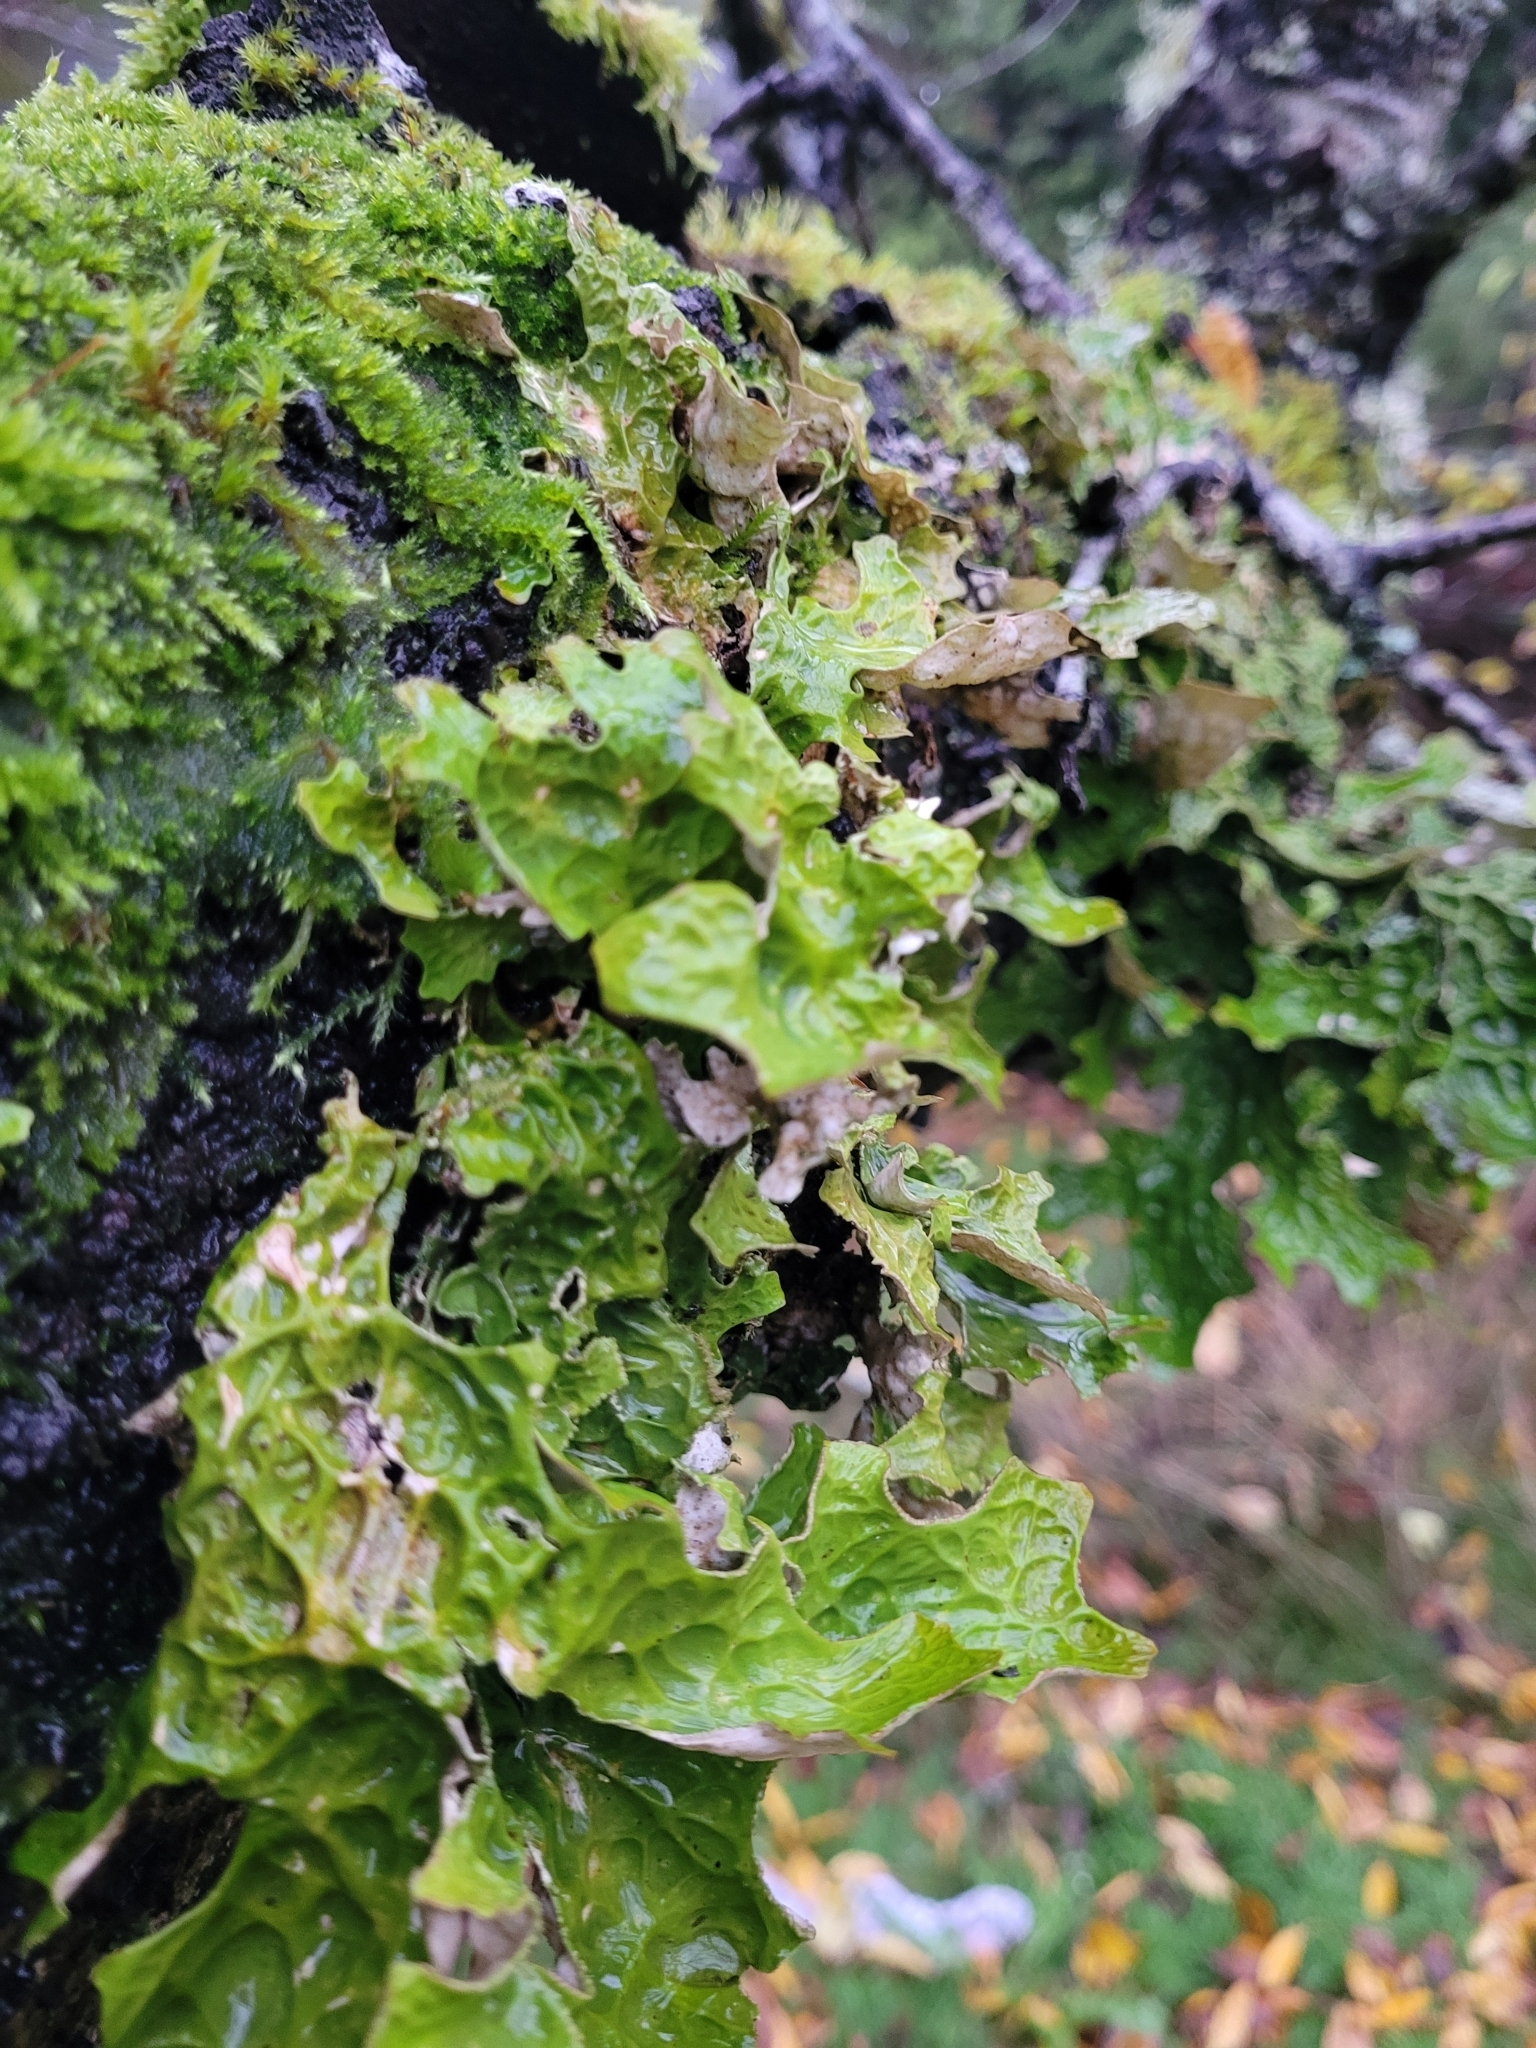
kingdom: Fungi
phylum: Ascomycota
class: Lecanoromycetes
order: Peltigerales
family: Lobariaceae
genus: Lobaria
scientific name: Lobaria pulmonaria
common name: Lungwort
